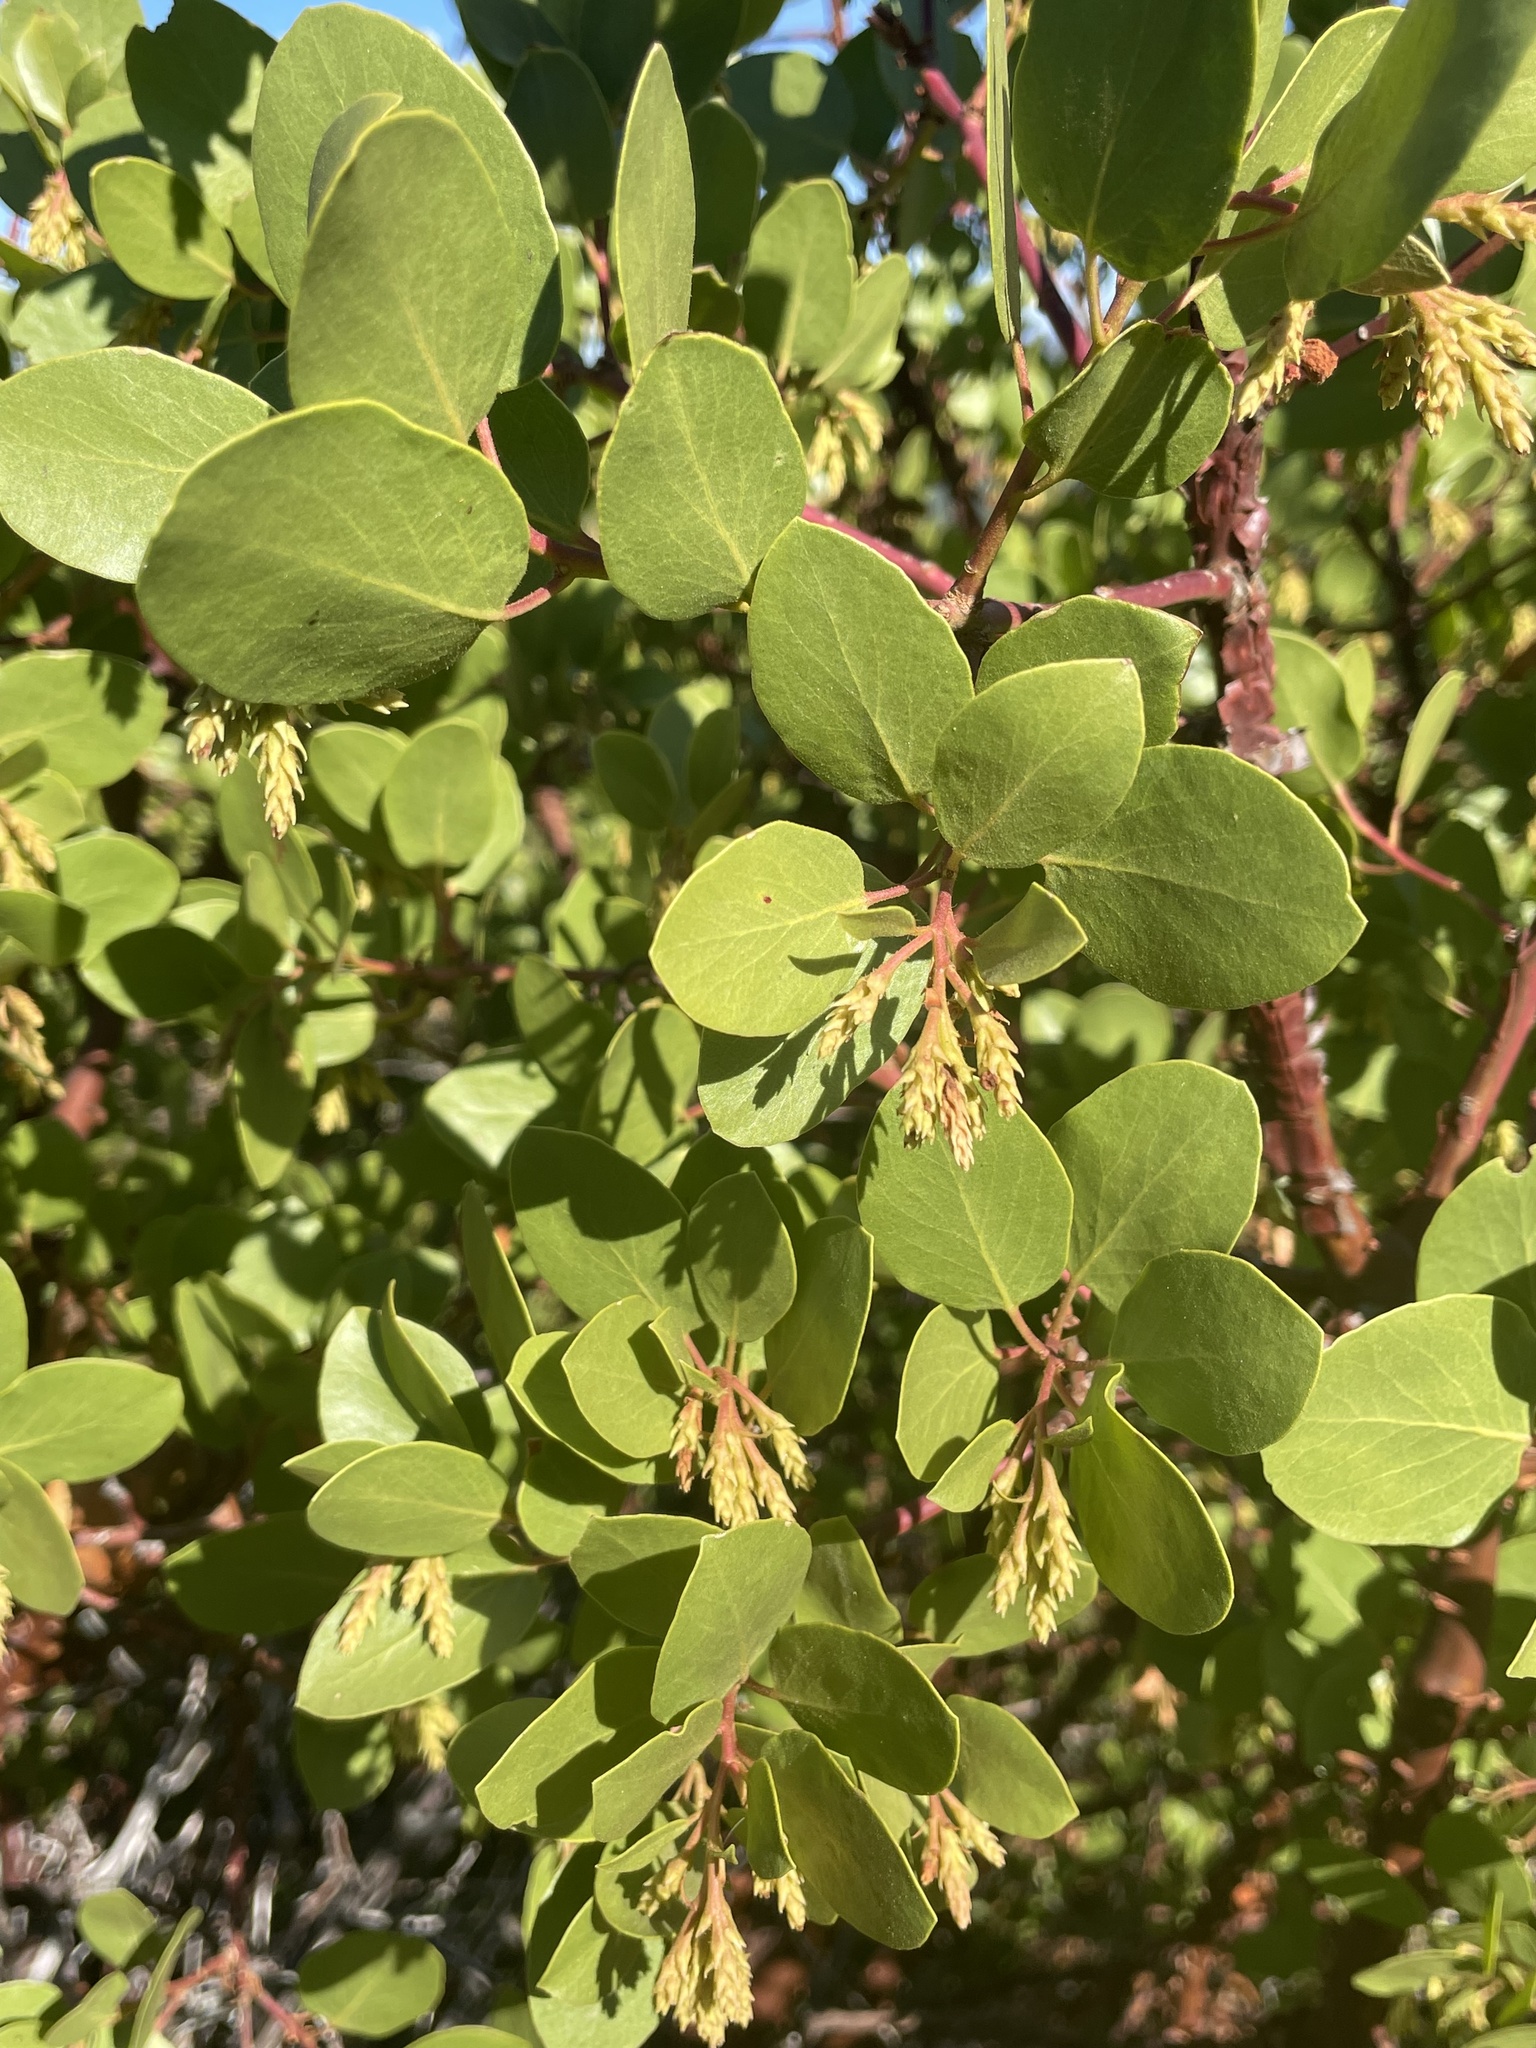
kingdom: Plantae
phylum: Tracheophyta
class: Magnoliopsida
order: Ericales
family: Ericaceae
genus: Arctostaphylos
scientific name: Arctostaphylos patula
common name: Green-leaf manzanita
